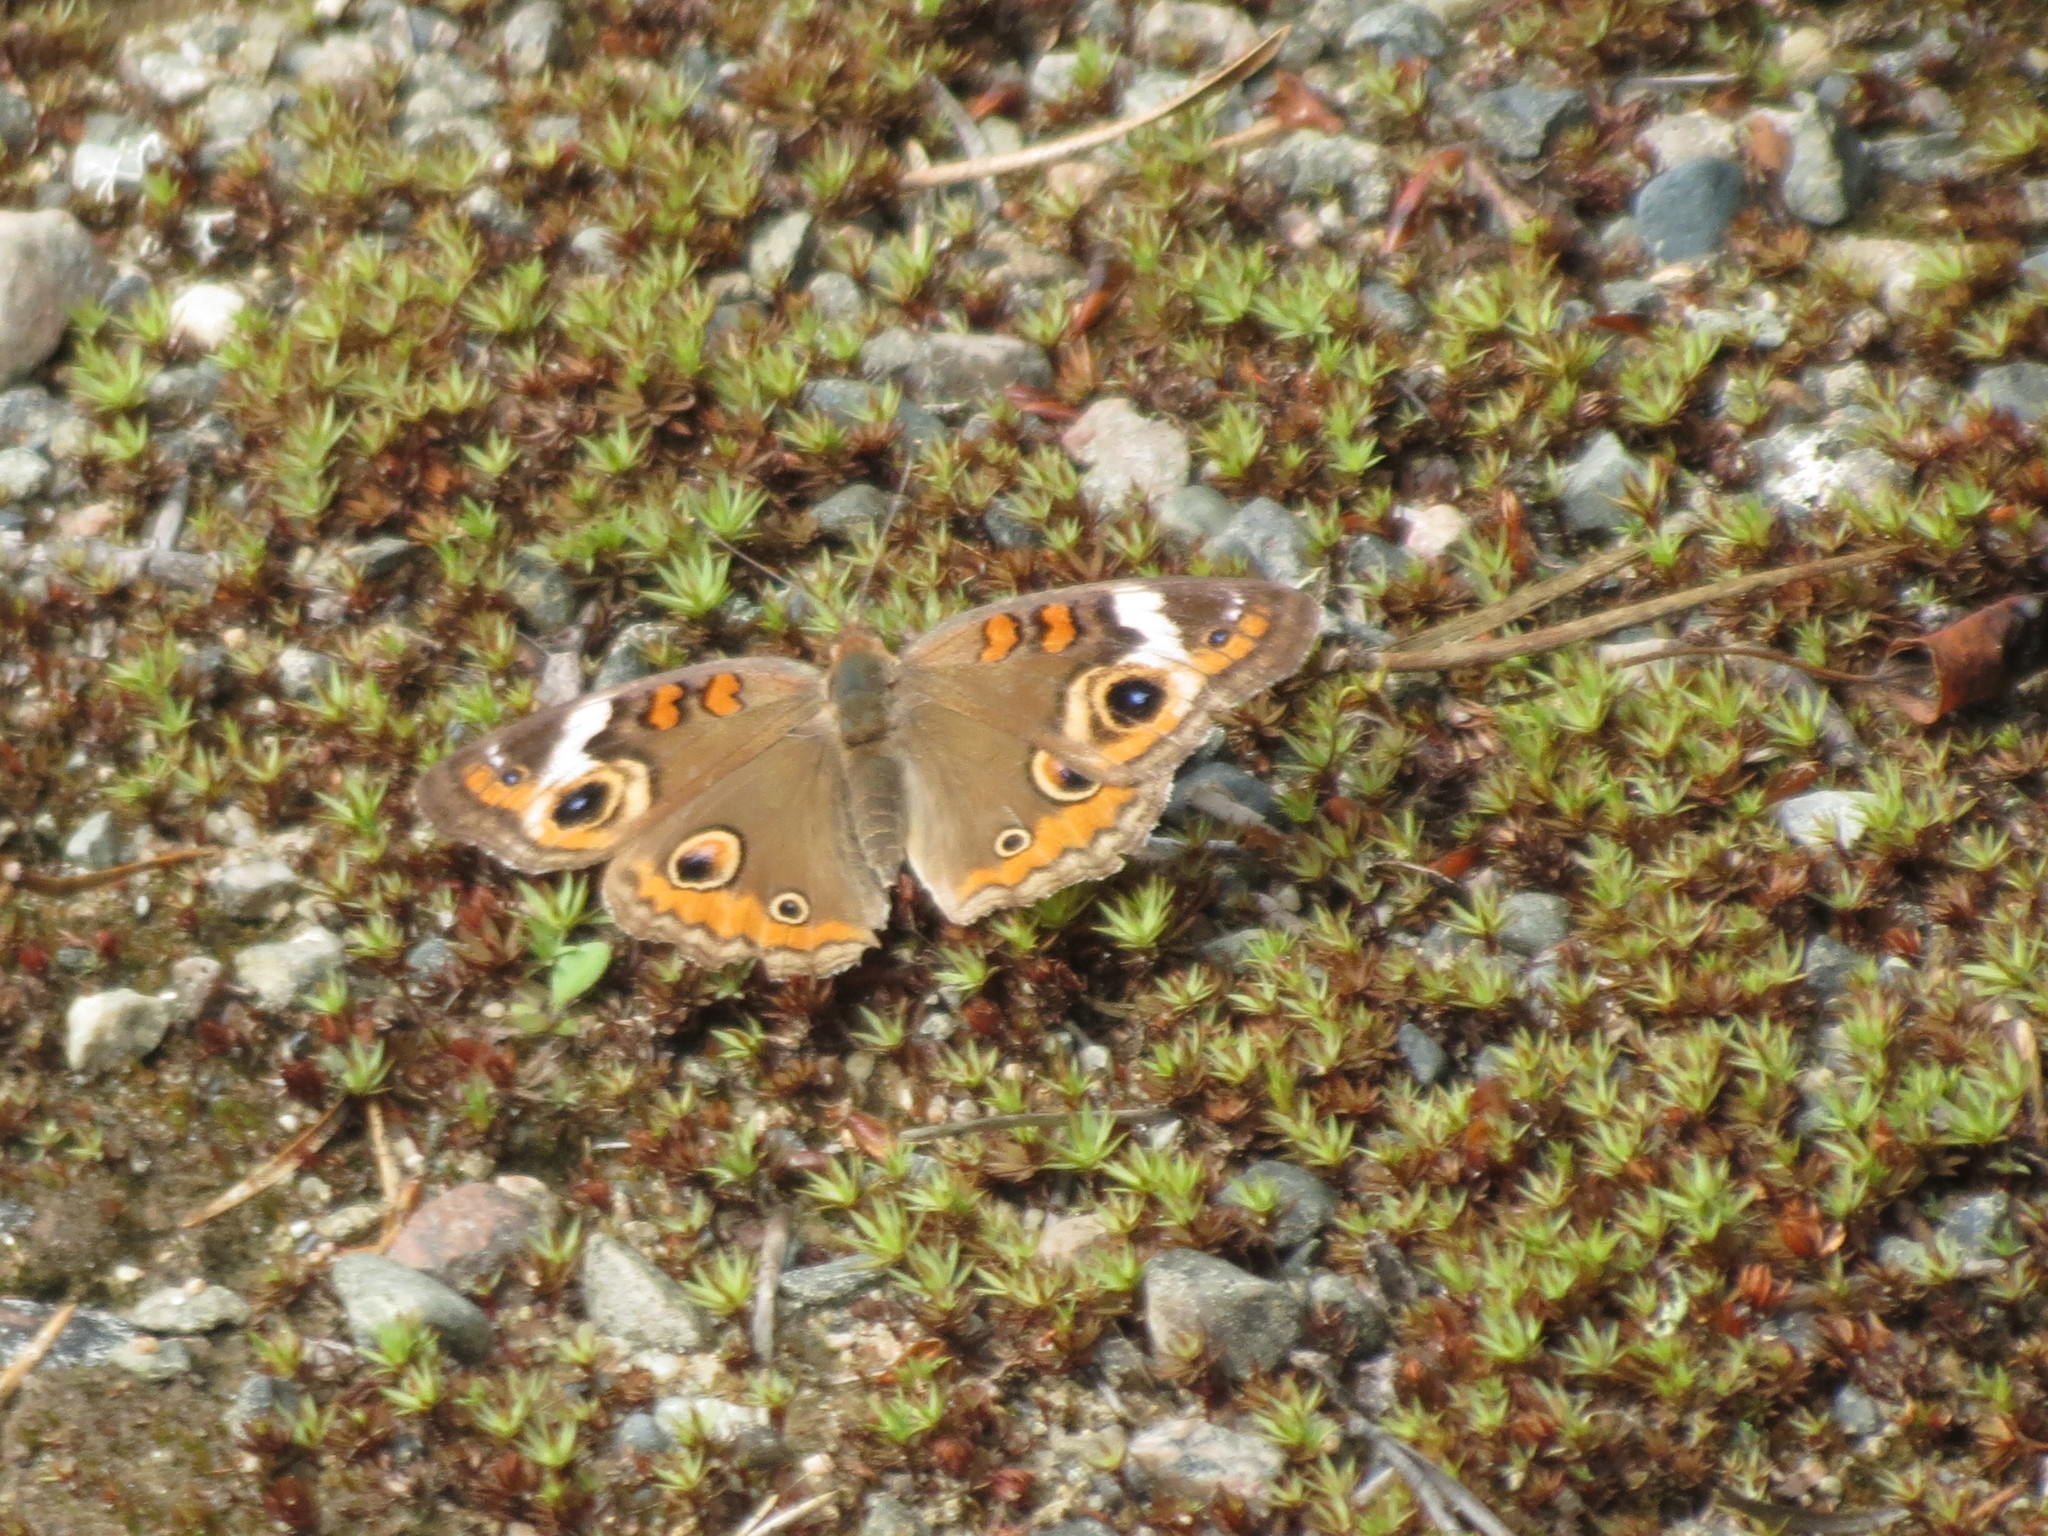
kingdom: Animalia
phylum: Arthropoda
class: Insecta
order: Lepidoptera
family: Nymphalidae
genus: Junonia
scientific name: Junonia coenia
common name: Common buckeye
